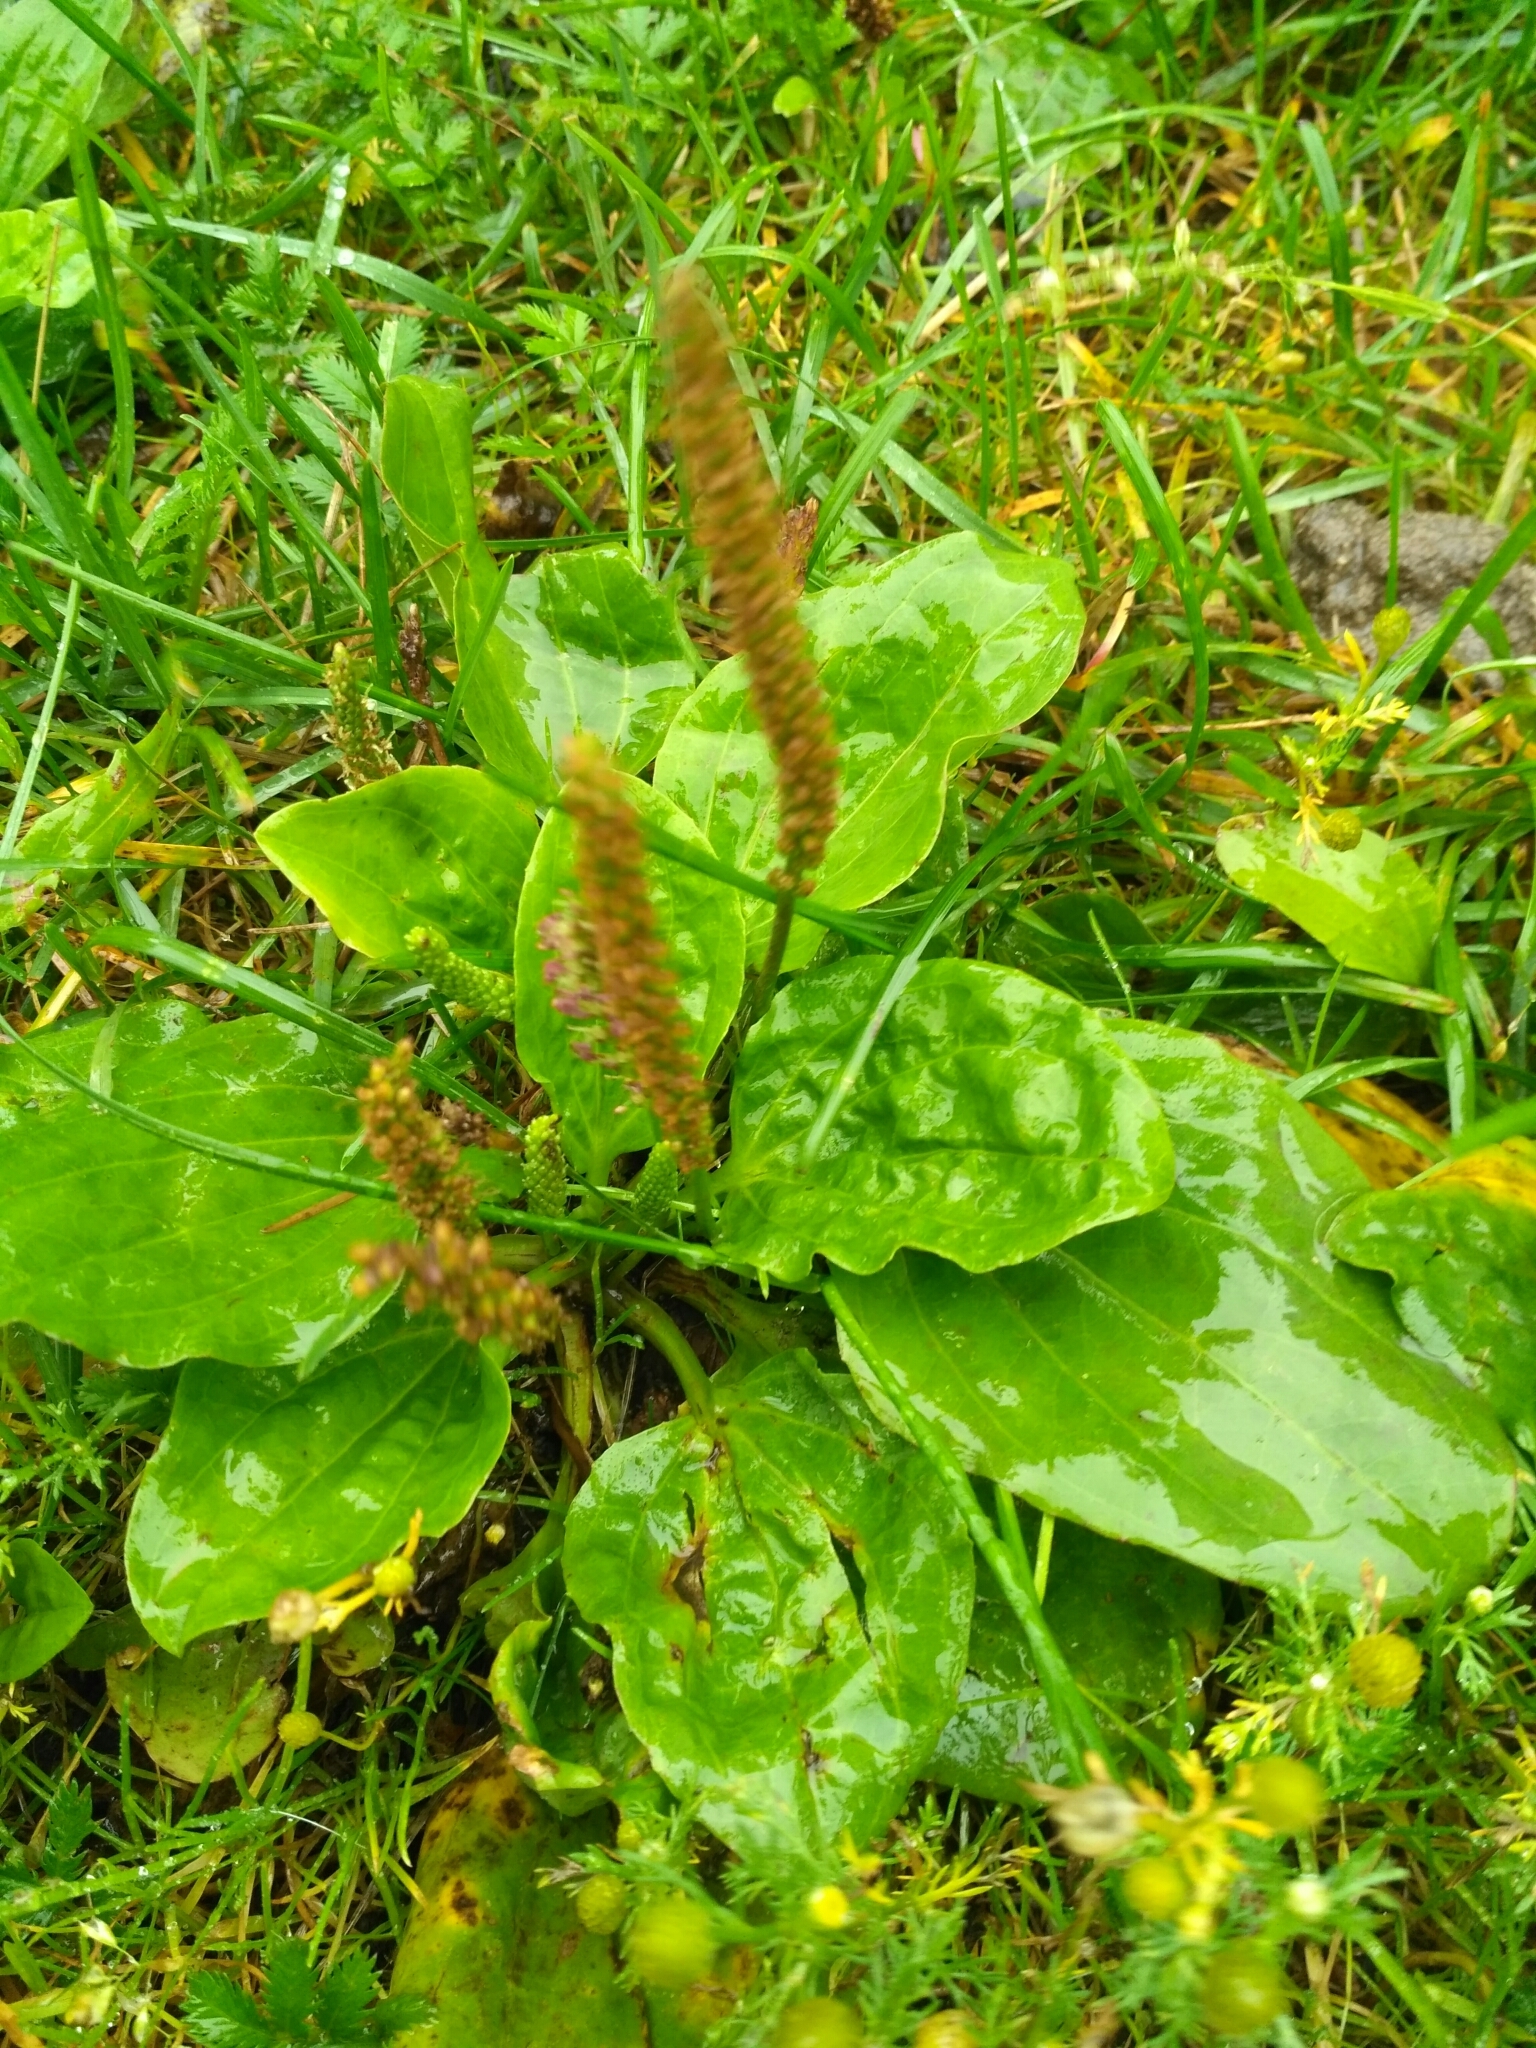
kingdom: Plantae
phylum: Tracheophyta
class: Magnoliopsida
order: Lamiales
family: Plantaginaceae
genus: Plantago
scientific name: Plantago major
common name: Common plantain
